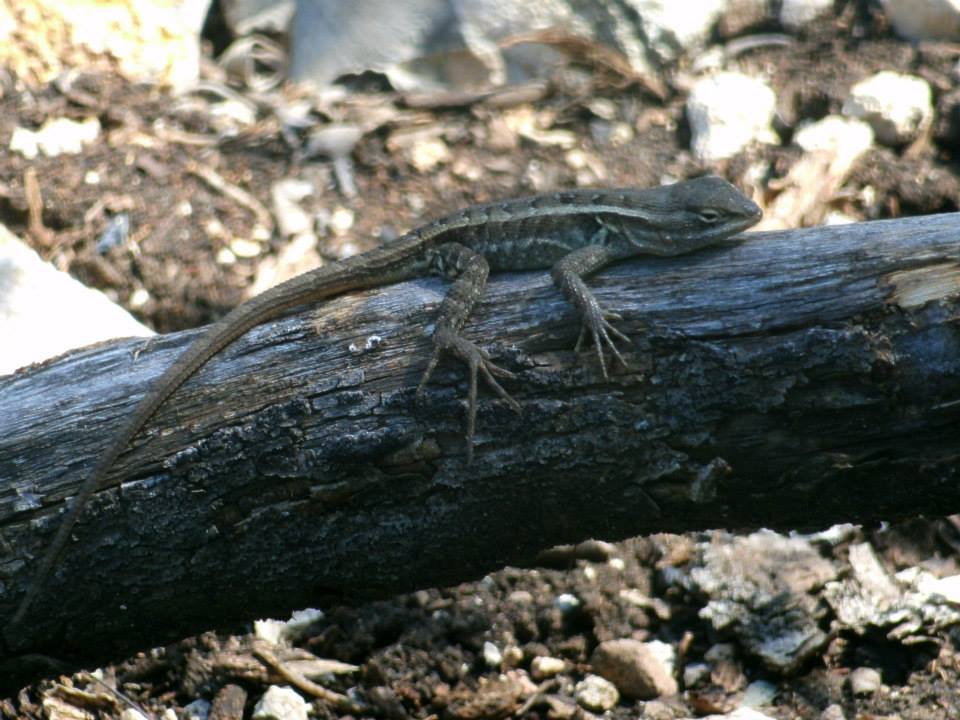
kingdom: Animalia
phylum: Chordata
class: Squamata
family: Phrynosomatidae
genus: Sceloporus
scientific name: Sceloporus variabilis
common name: Rosebelly lizard
